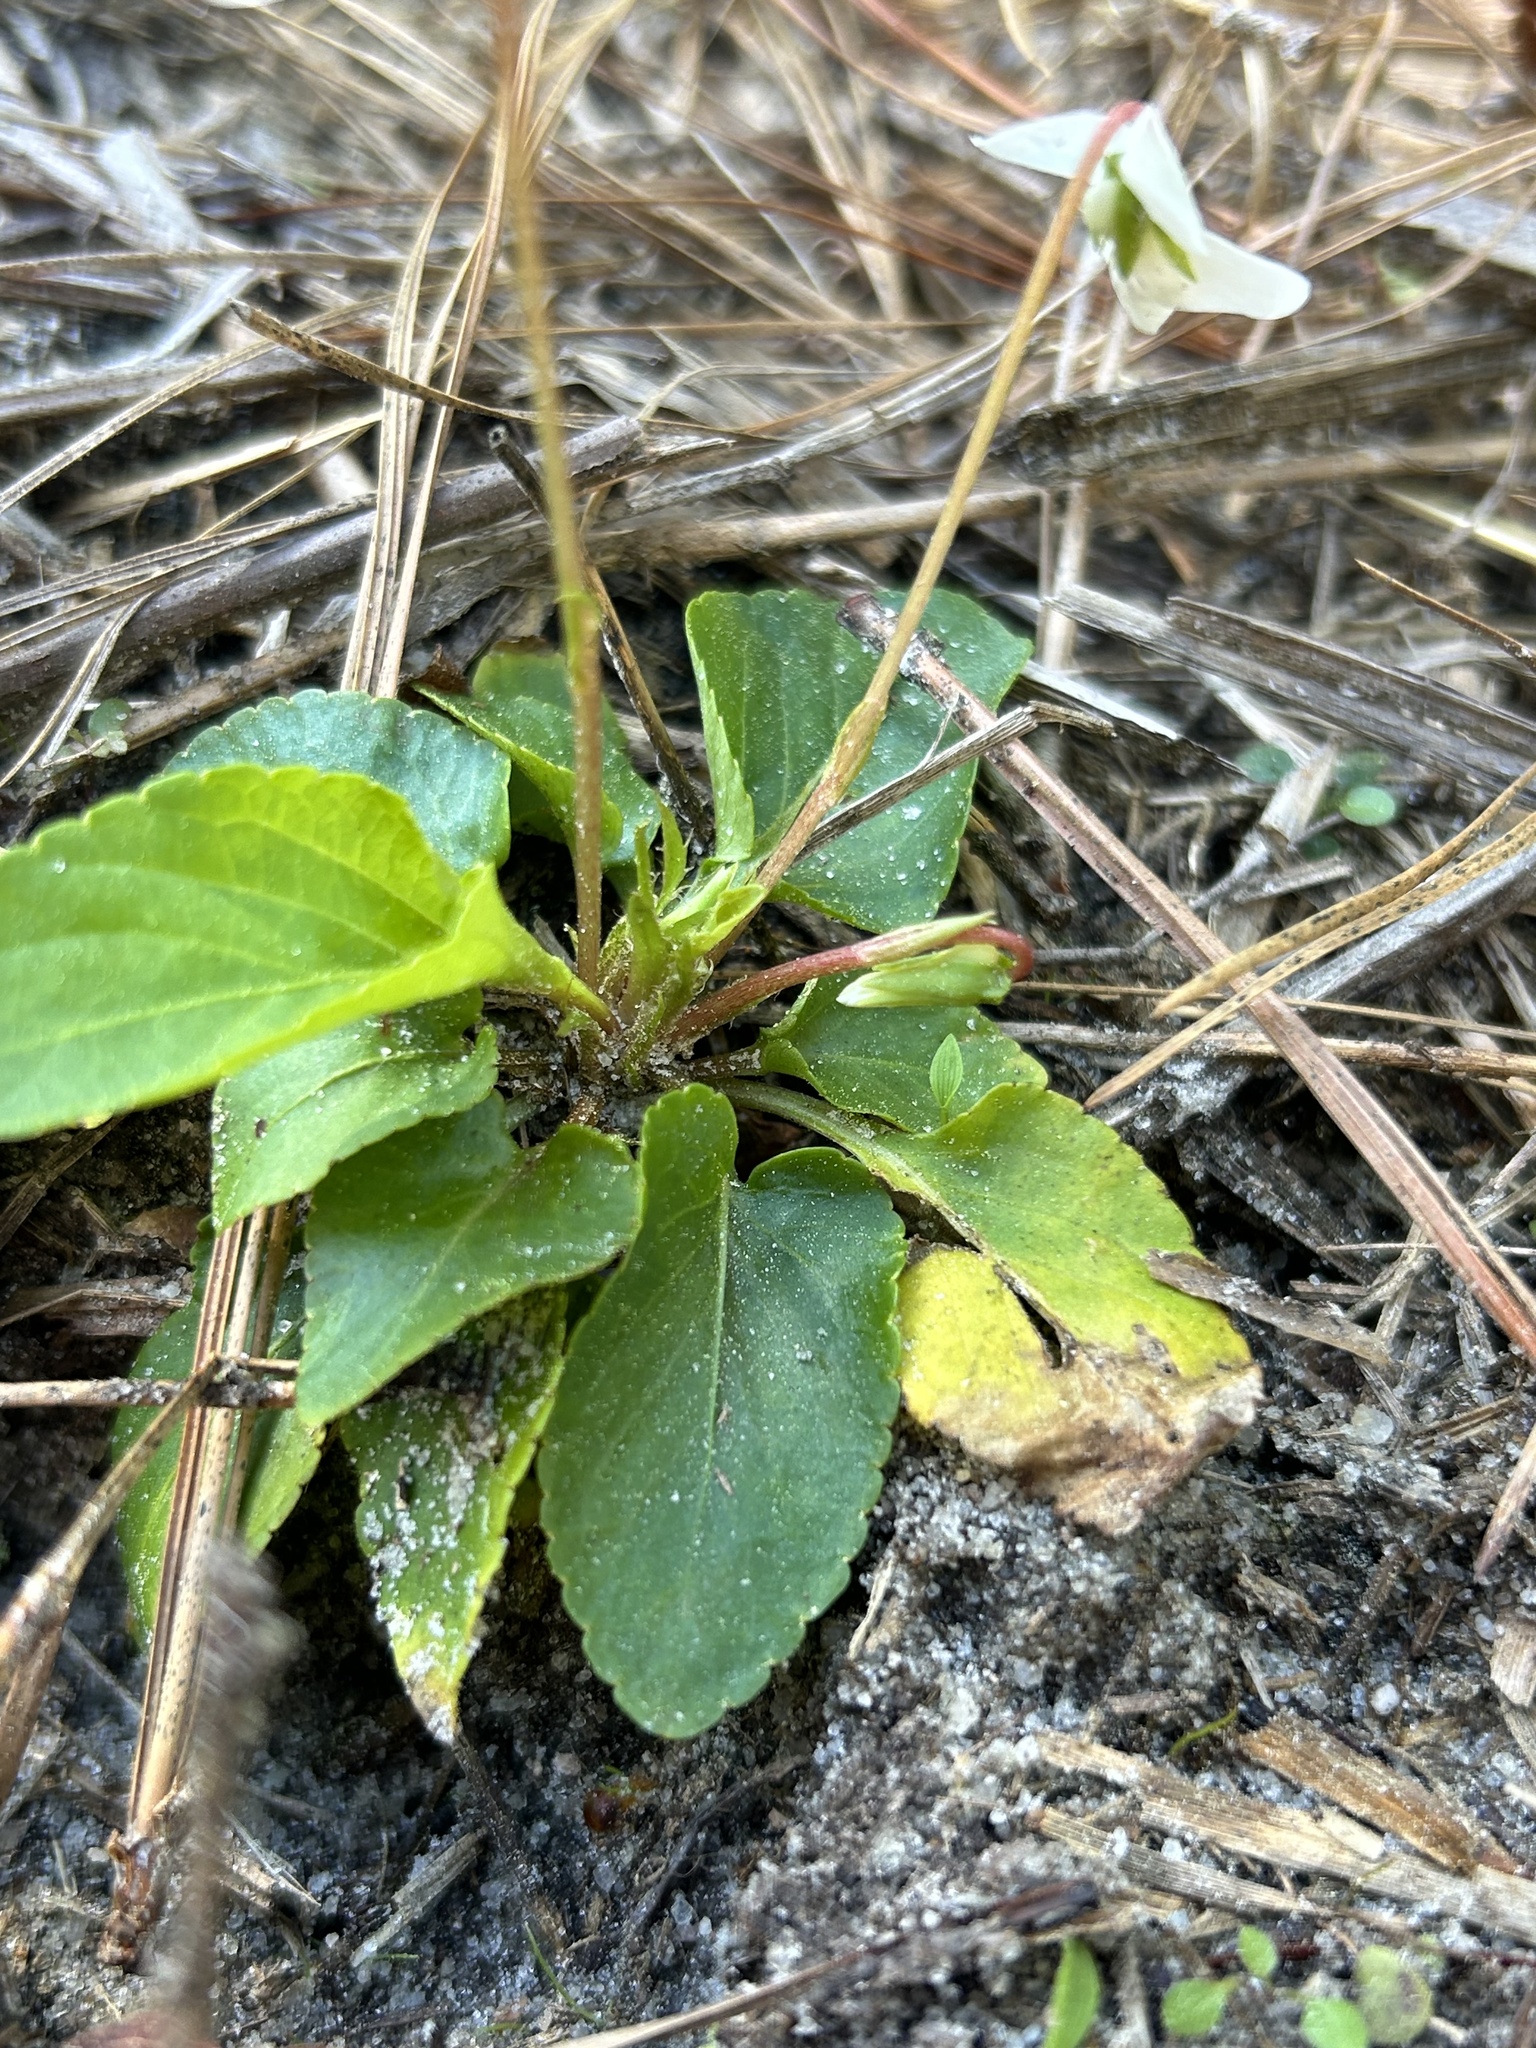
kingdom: Plantae
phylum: Tracheophyta
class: Magnoliopsida
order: Malpighiales
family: Violaceae
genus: Viola
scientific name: Viola primulifolia
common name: Primrose-leaf violet
